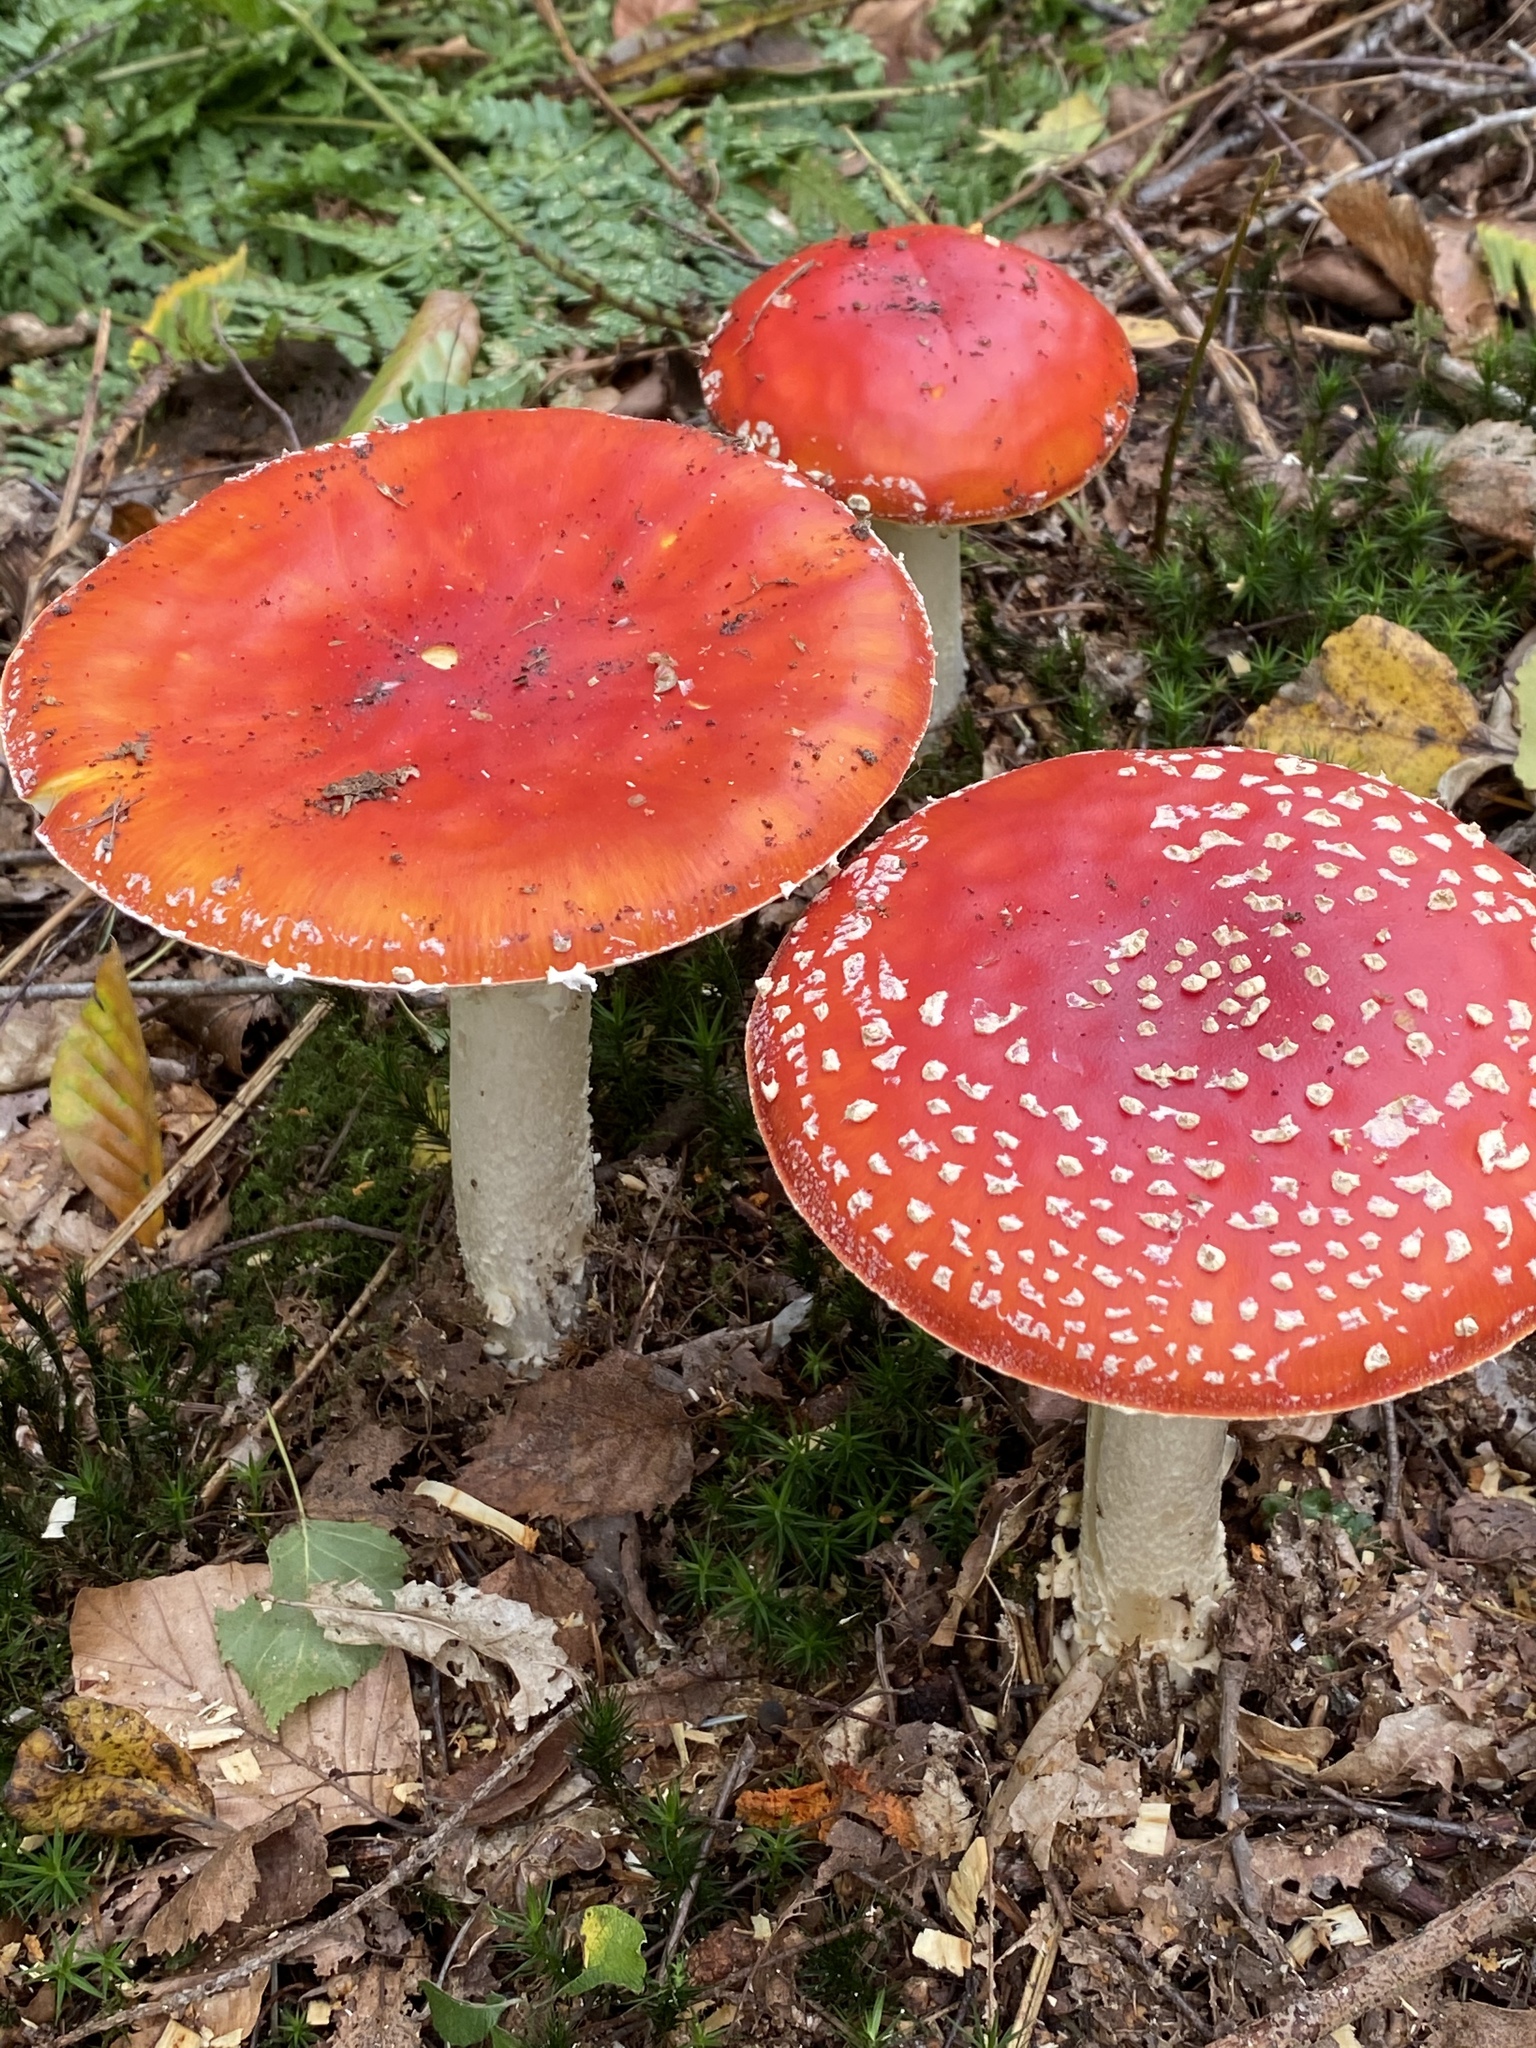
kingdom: Fungi
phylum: Basidiomycota
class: Agaricomycetes
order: Agaricales
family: Amanitaceae
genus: Amanita
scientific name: Amanita muscaria
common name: Fly agaric
